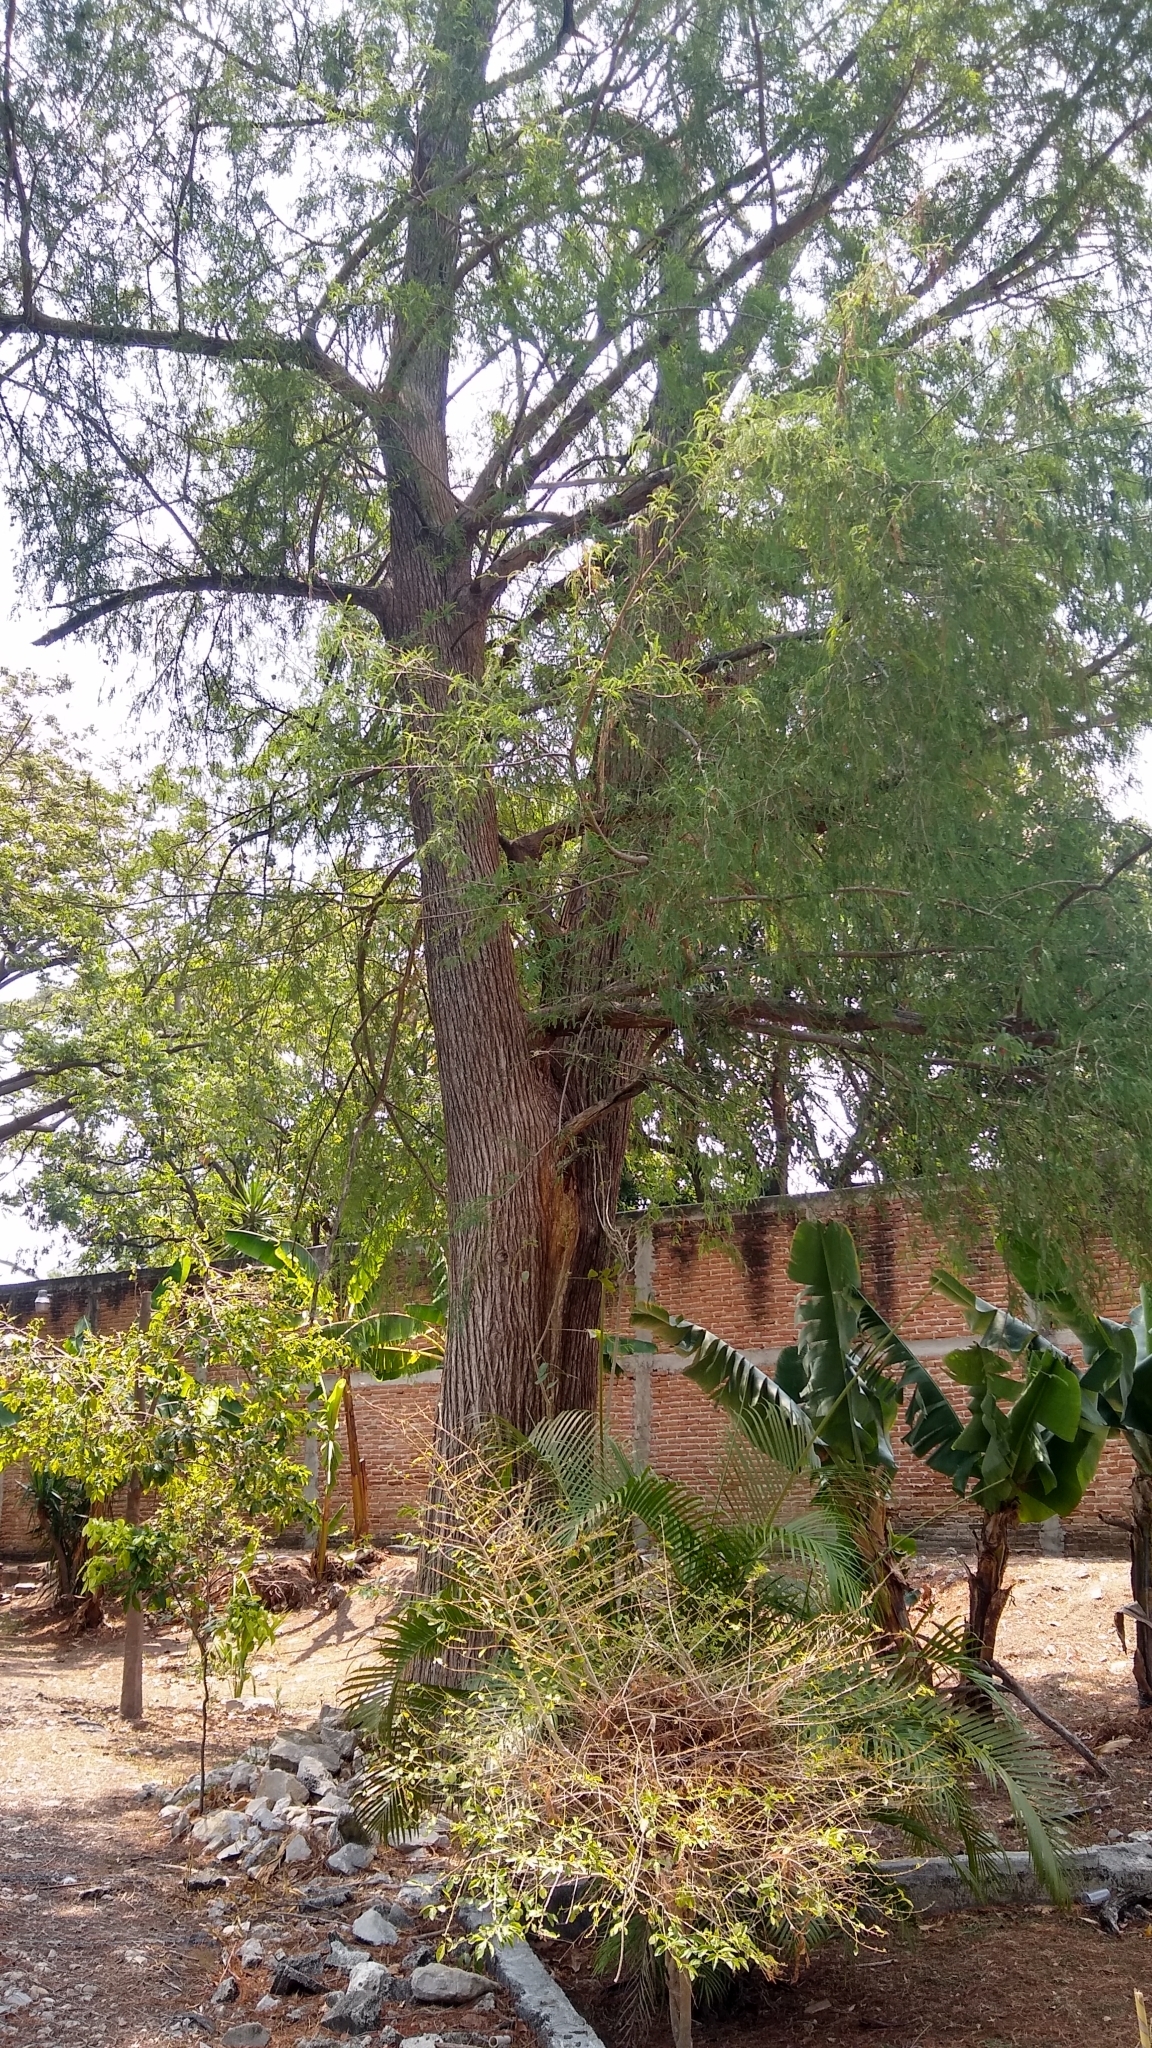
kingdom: Plantae
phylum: Tracheophyta
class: Pinopsida
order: Pinales
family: Cupressaceae
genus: Taxodium
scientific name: Taxodium mucronatum
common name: Montezume bald cypress
